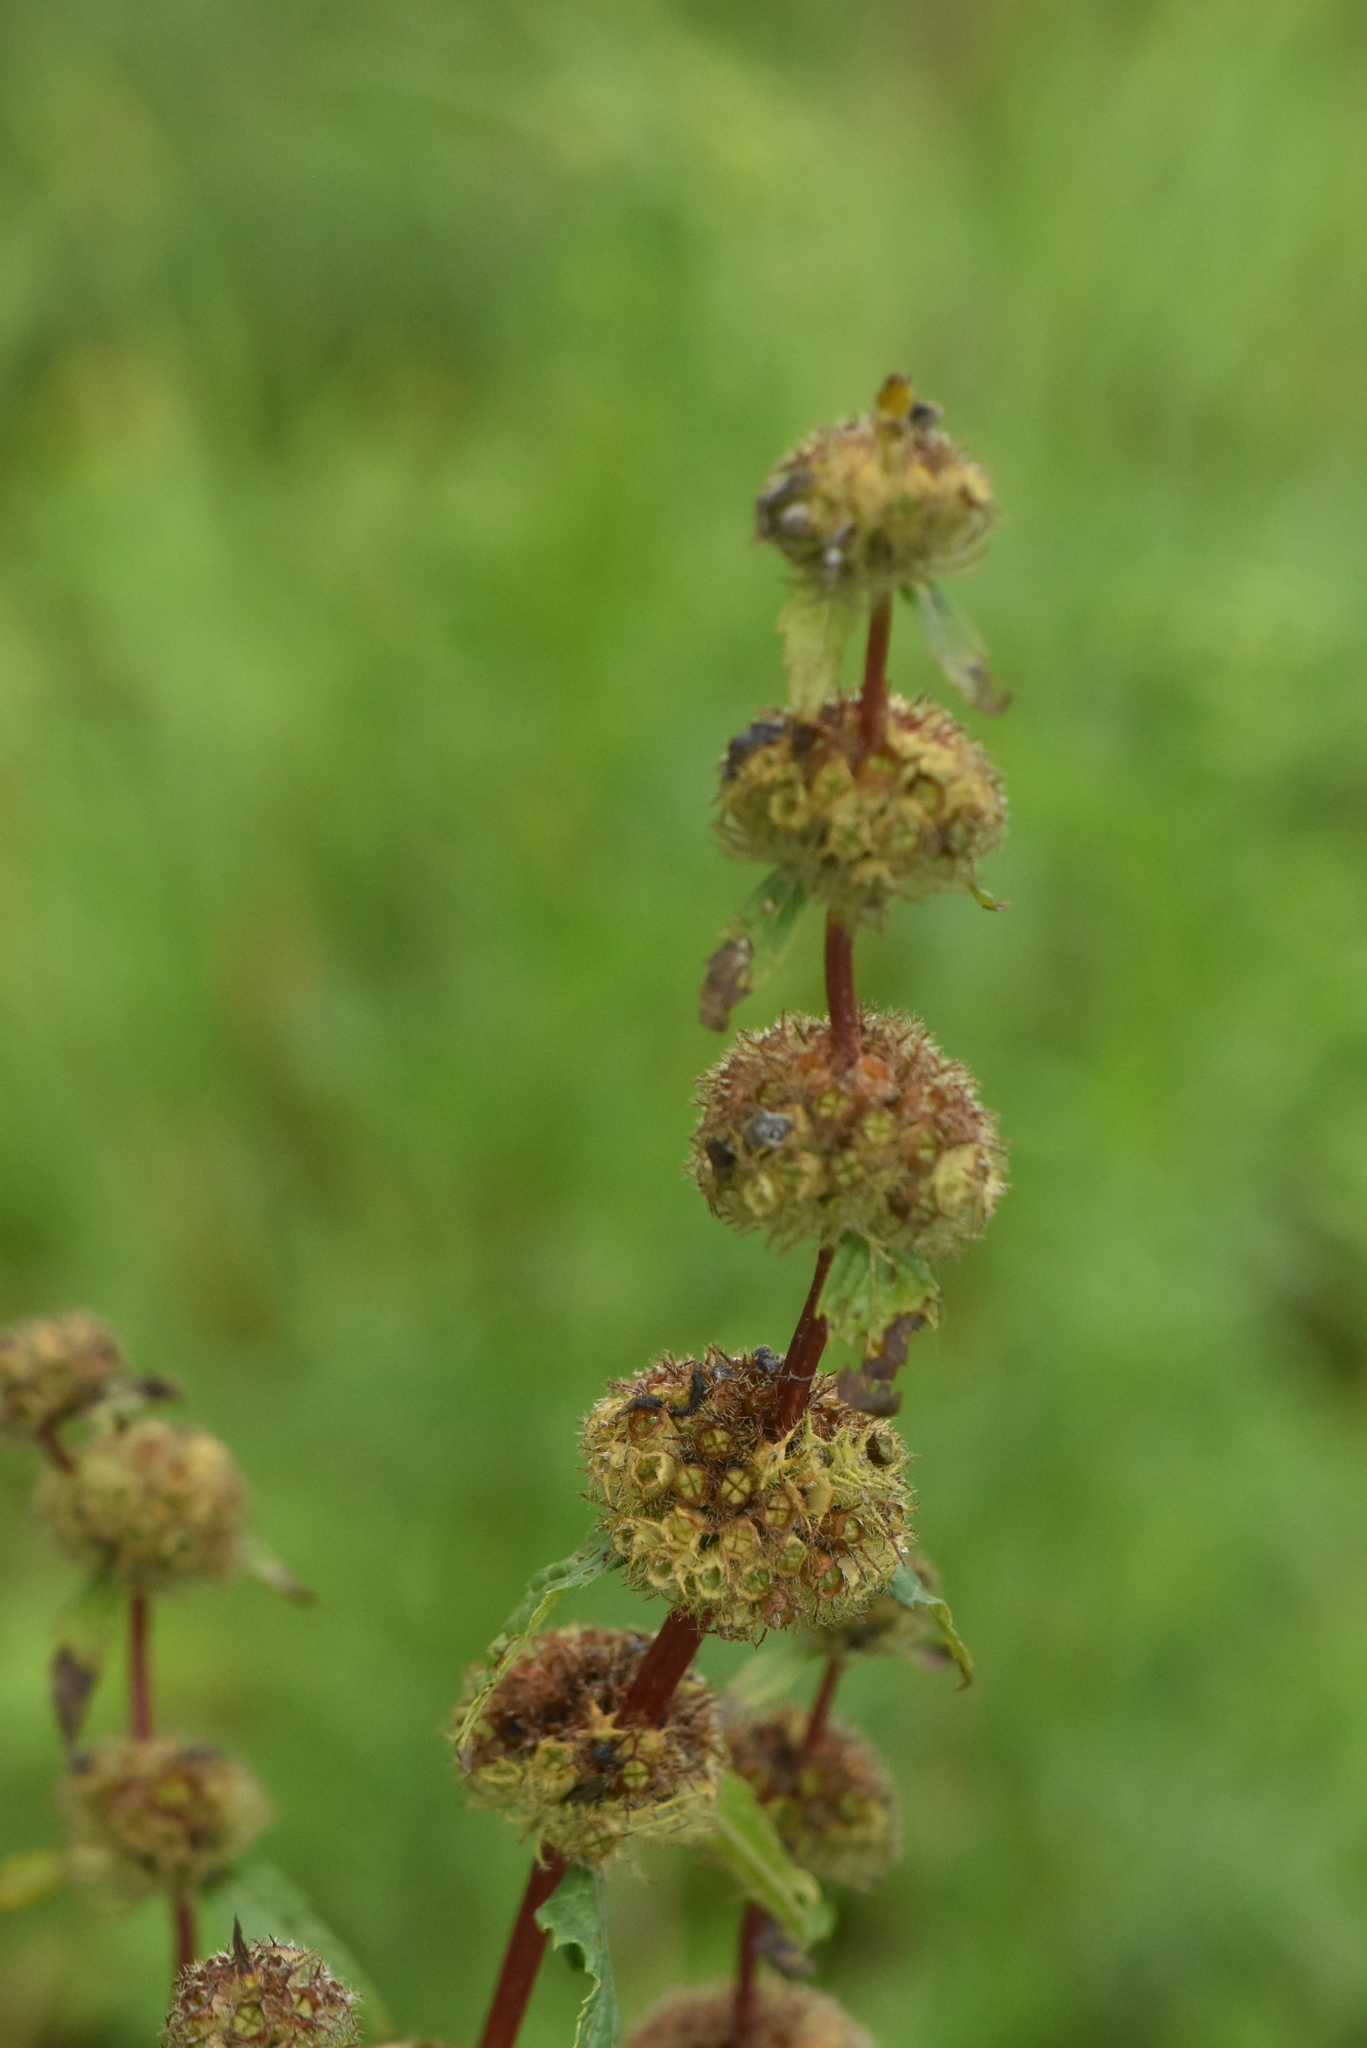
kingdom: Plantae
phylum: Tracheophyta
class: Magnoliopsida
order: Lamiales
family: Lamiaceae
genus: Phlomoides
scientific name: Phlomoides tuberosa
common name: Tuberous jerusalem sage
